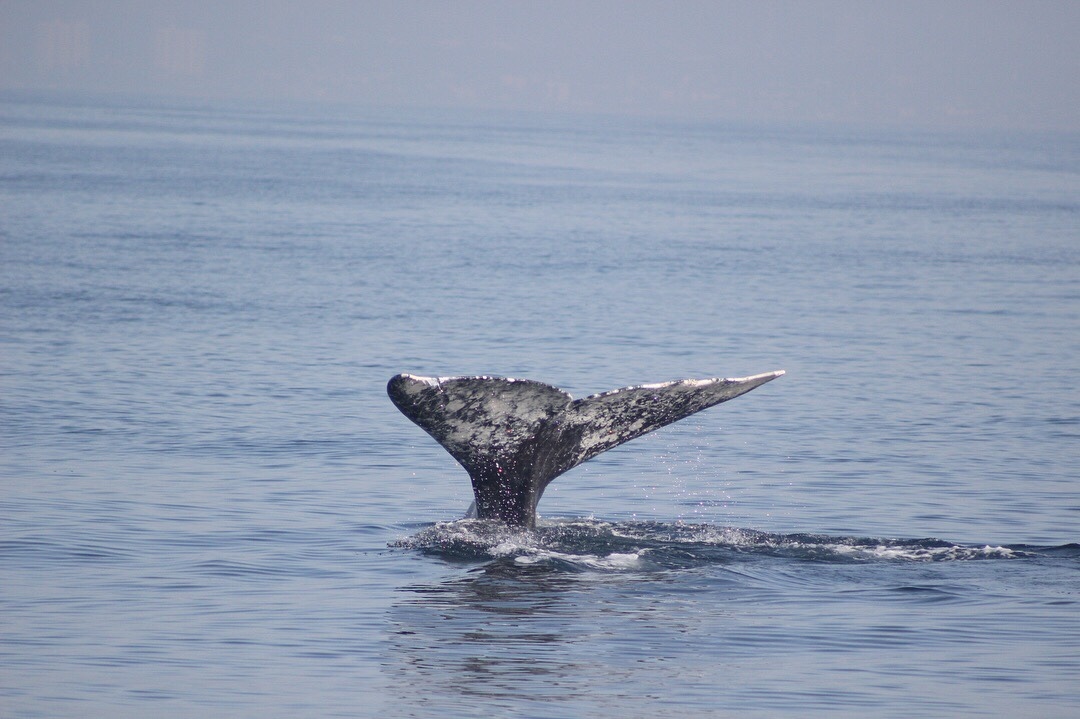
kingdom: Animalia
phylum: Chordata
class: Mammalia
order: Cetacea
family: Eschrichtiidae
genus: Eschrichtius
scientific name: Eschrichtius robustus
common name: Gray whale
